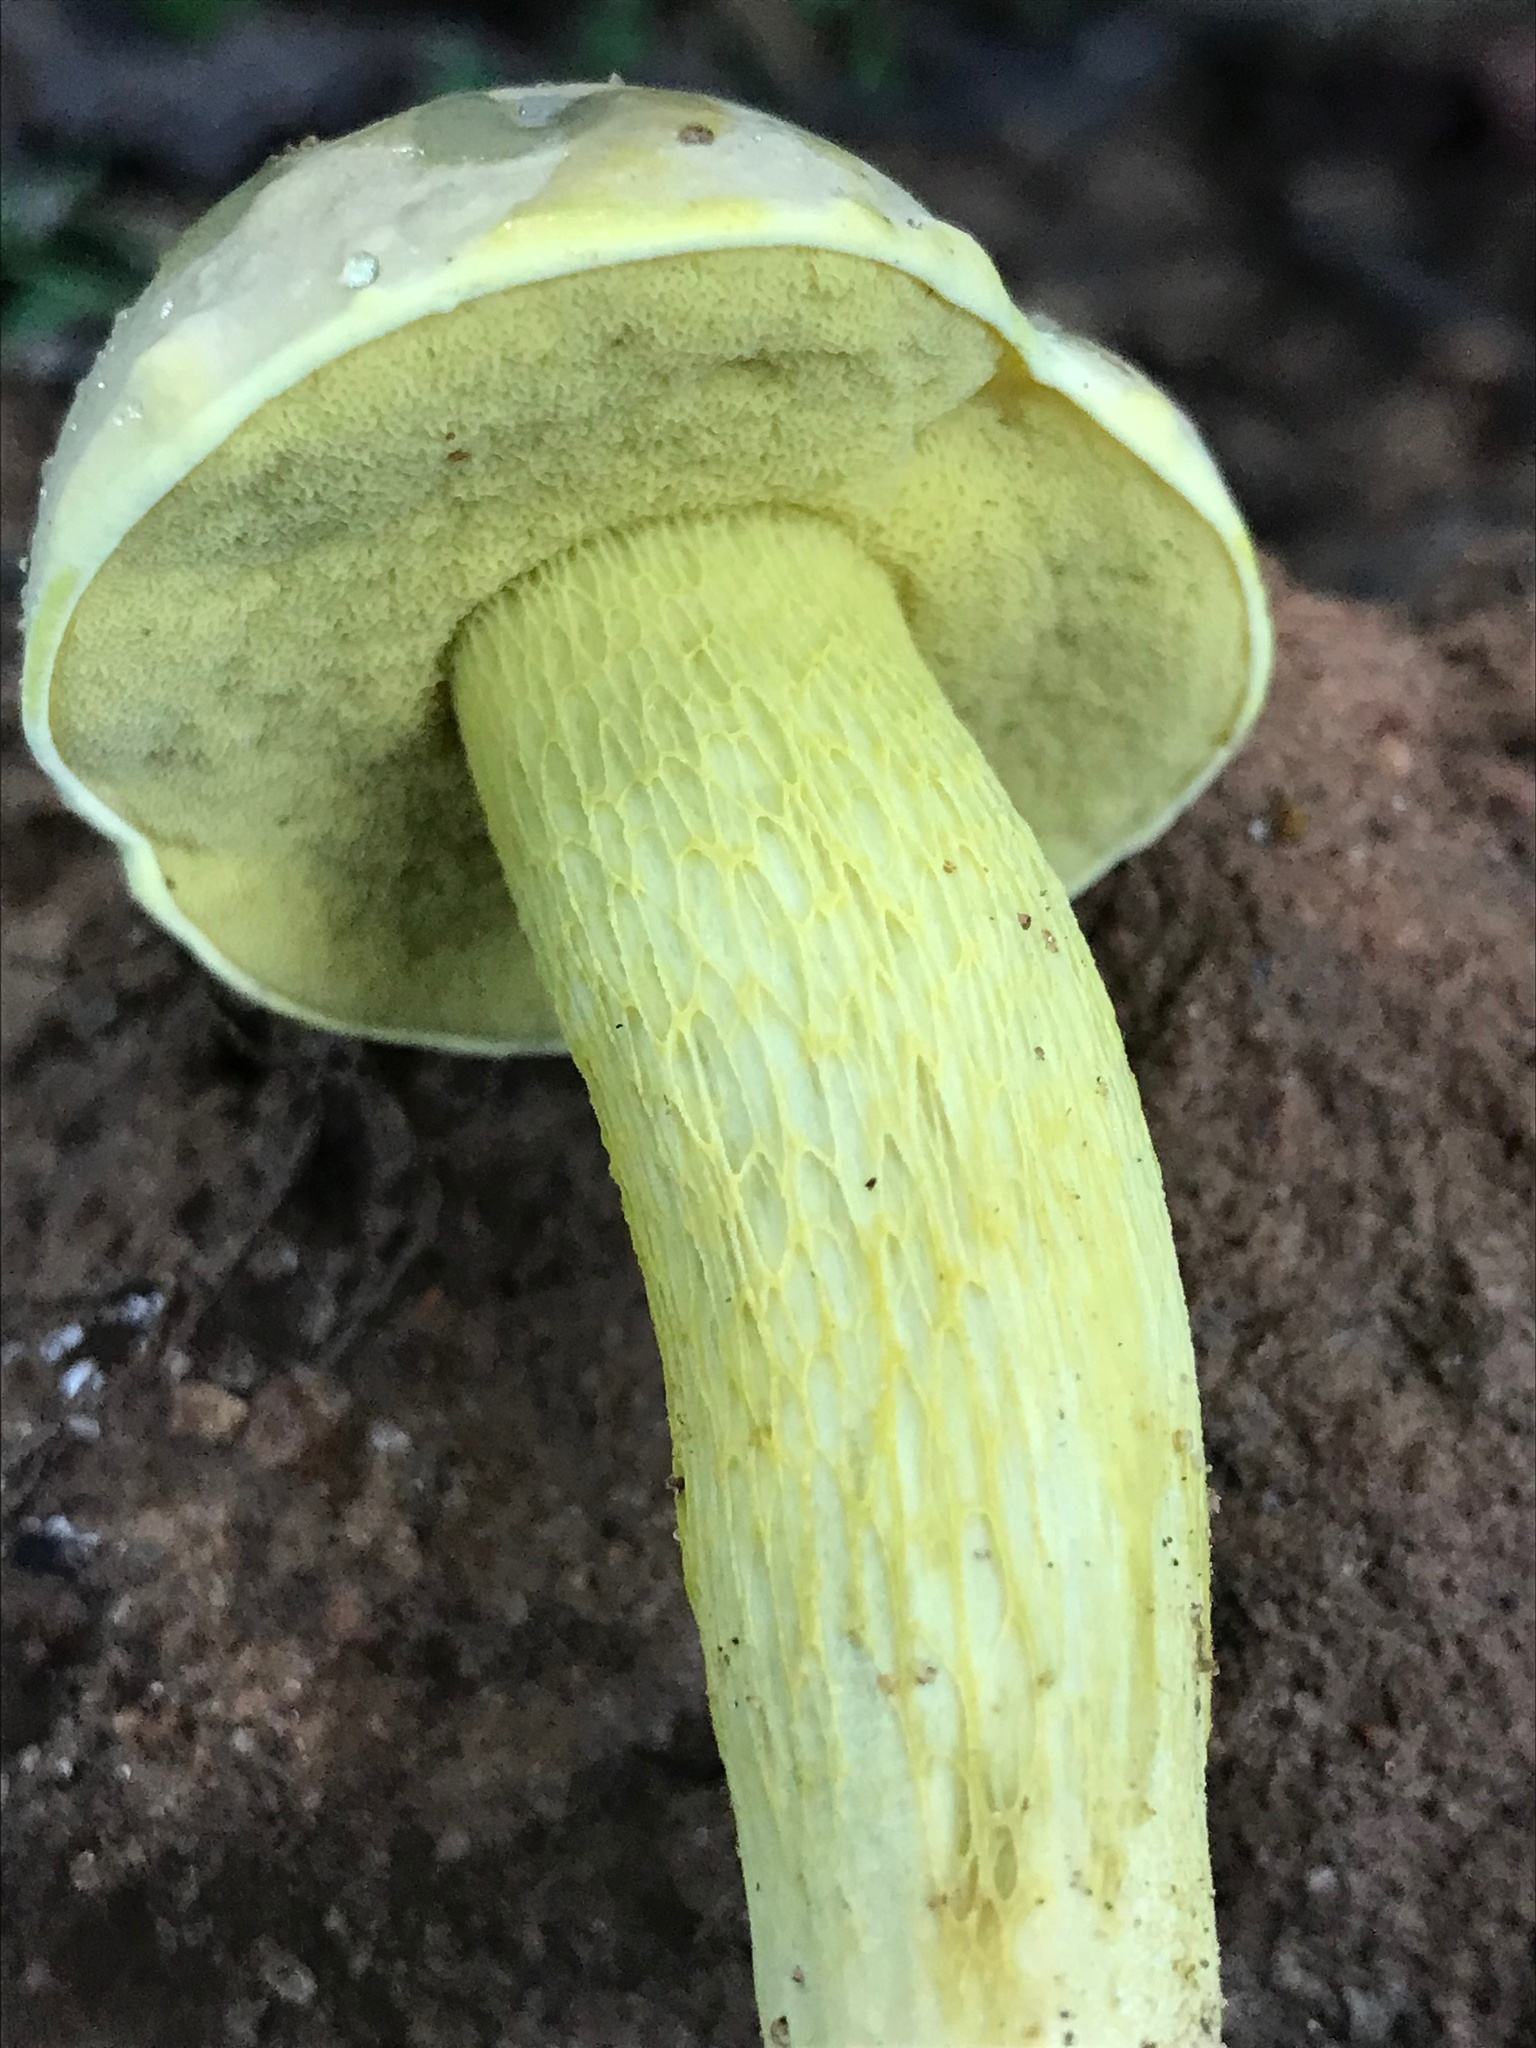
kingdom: Fungi
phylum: Basidiomycota
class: Agaricomycetes
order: Boletales
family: Boletaceae
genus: Retiboletus
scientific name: Retiboletus ornatipes
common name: Ornate-stalked bolete
